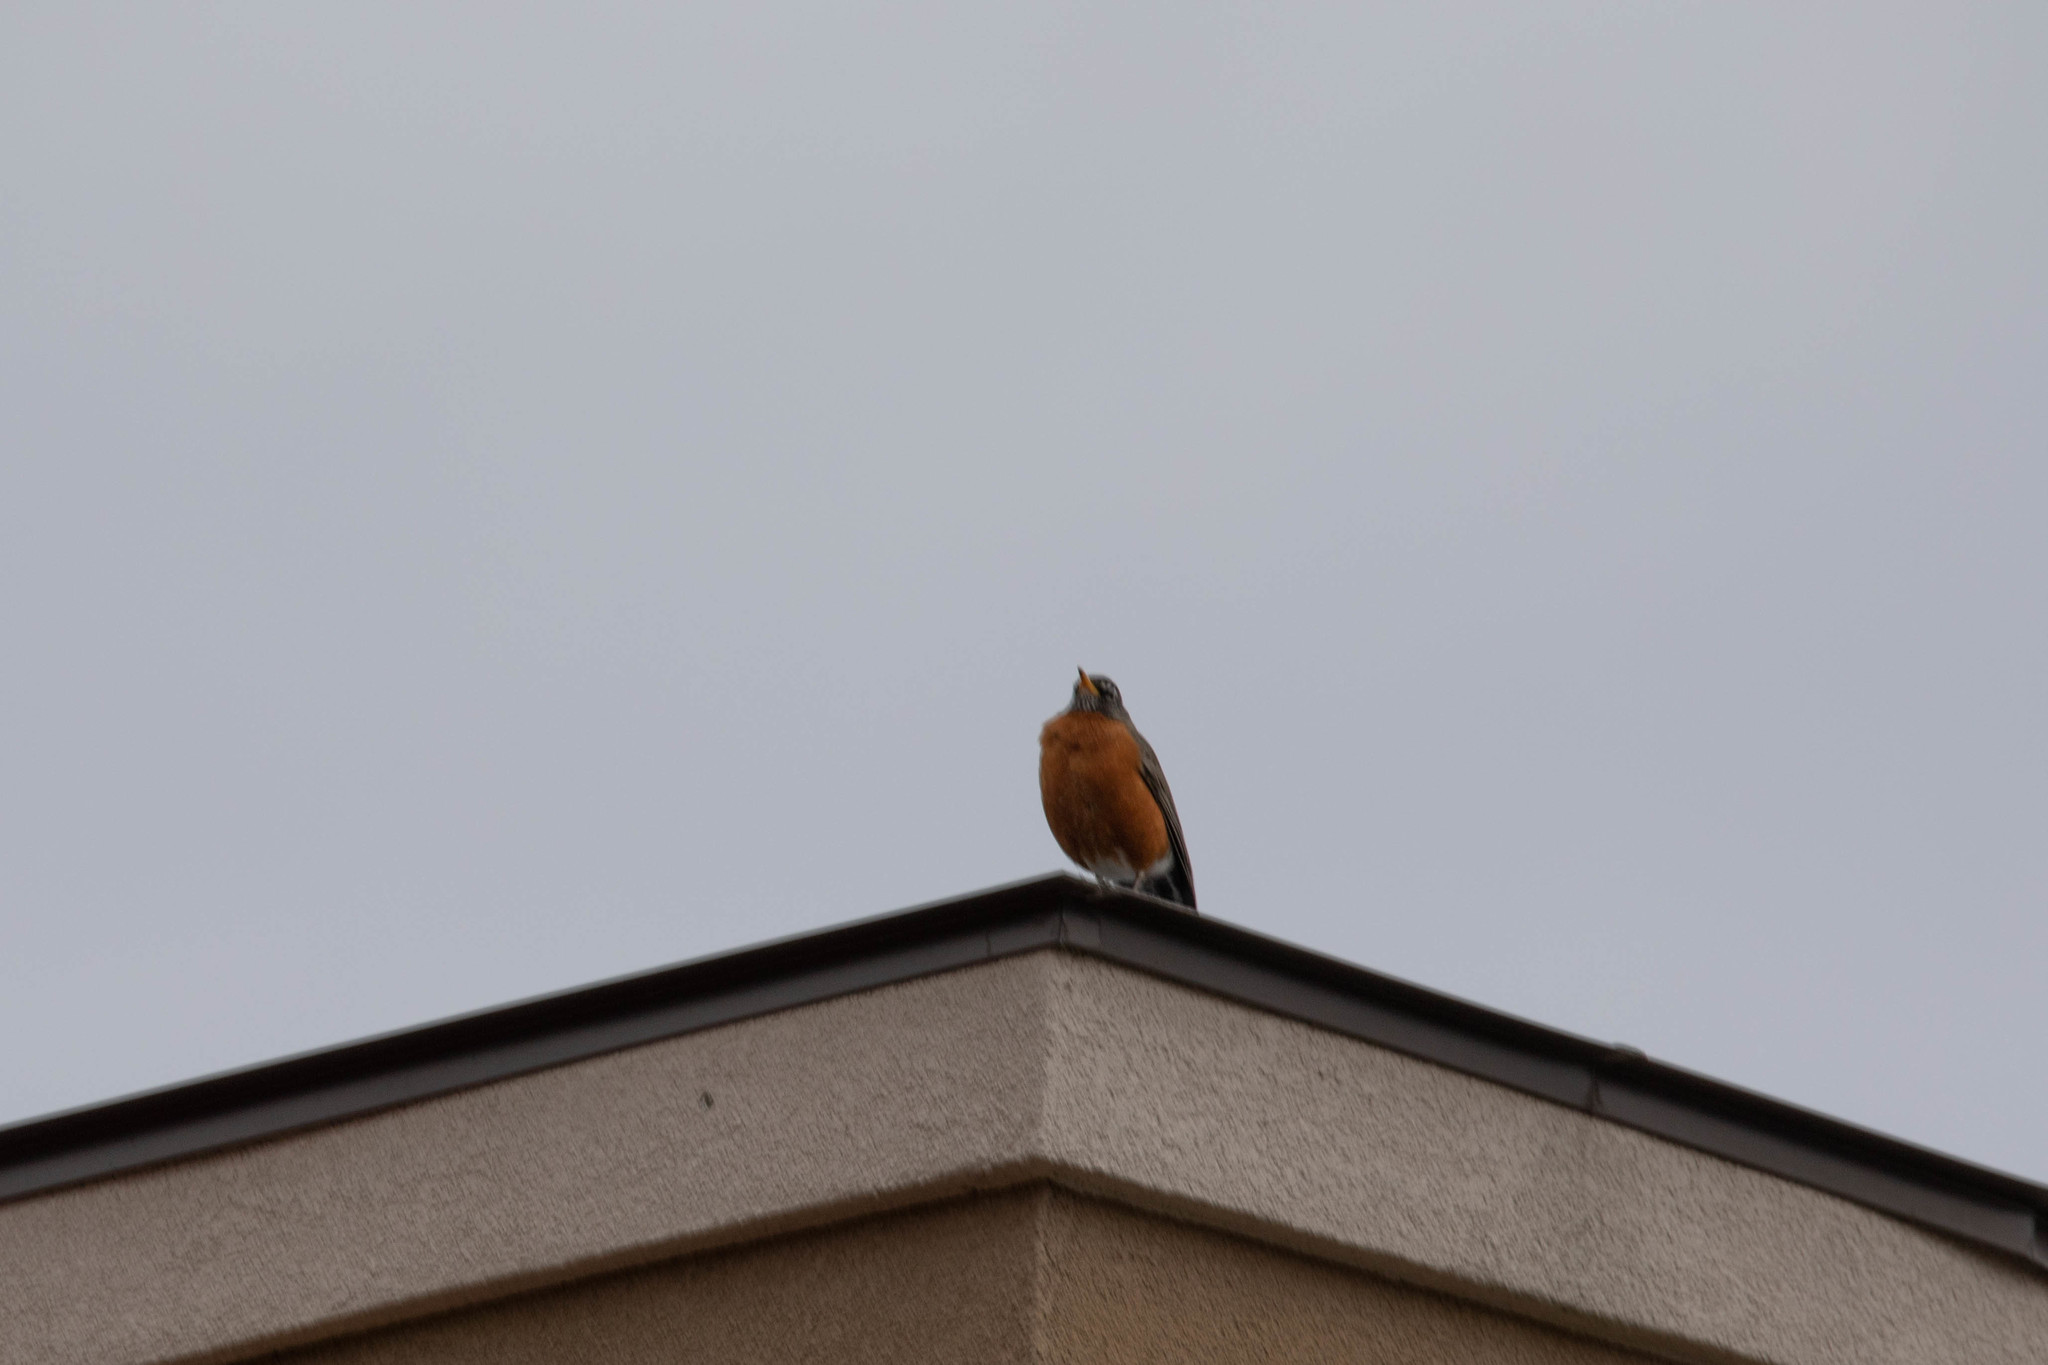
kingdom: Animalia
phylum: Chordata
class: Aves
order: Passeriformes
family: Turdidae
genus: Turdus
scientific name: Turdus migratorius
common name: American robin
